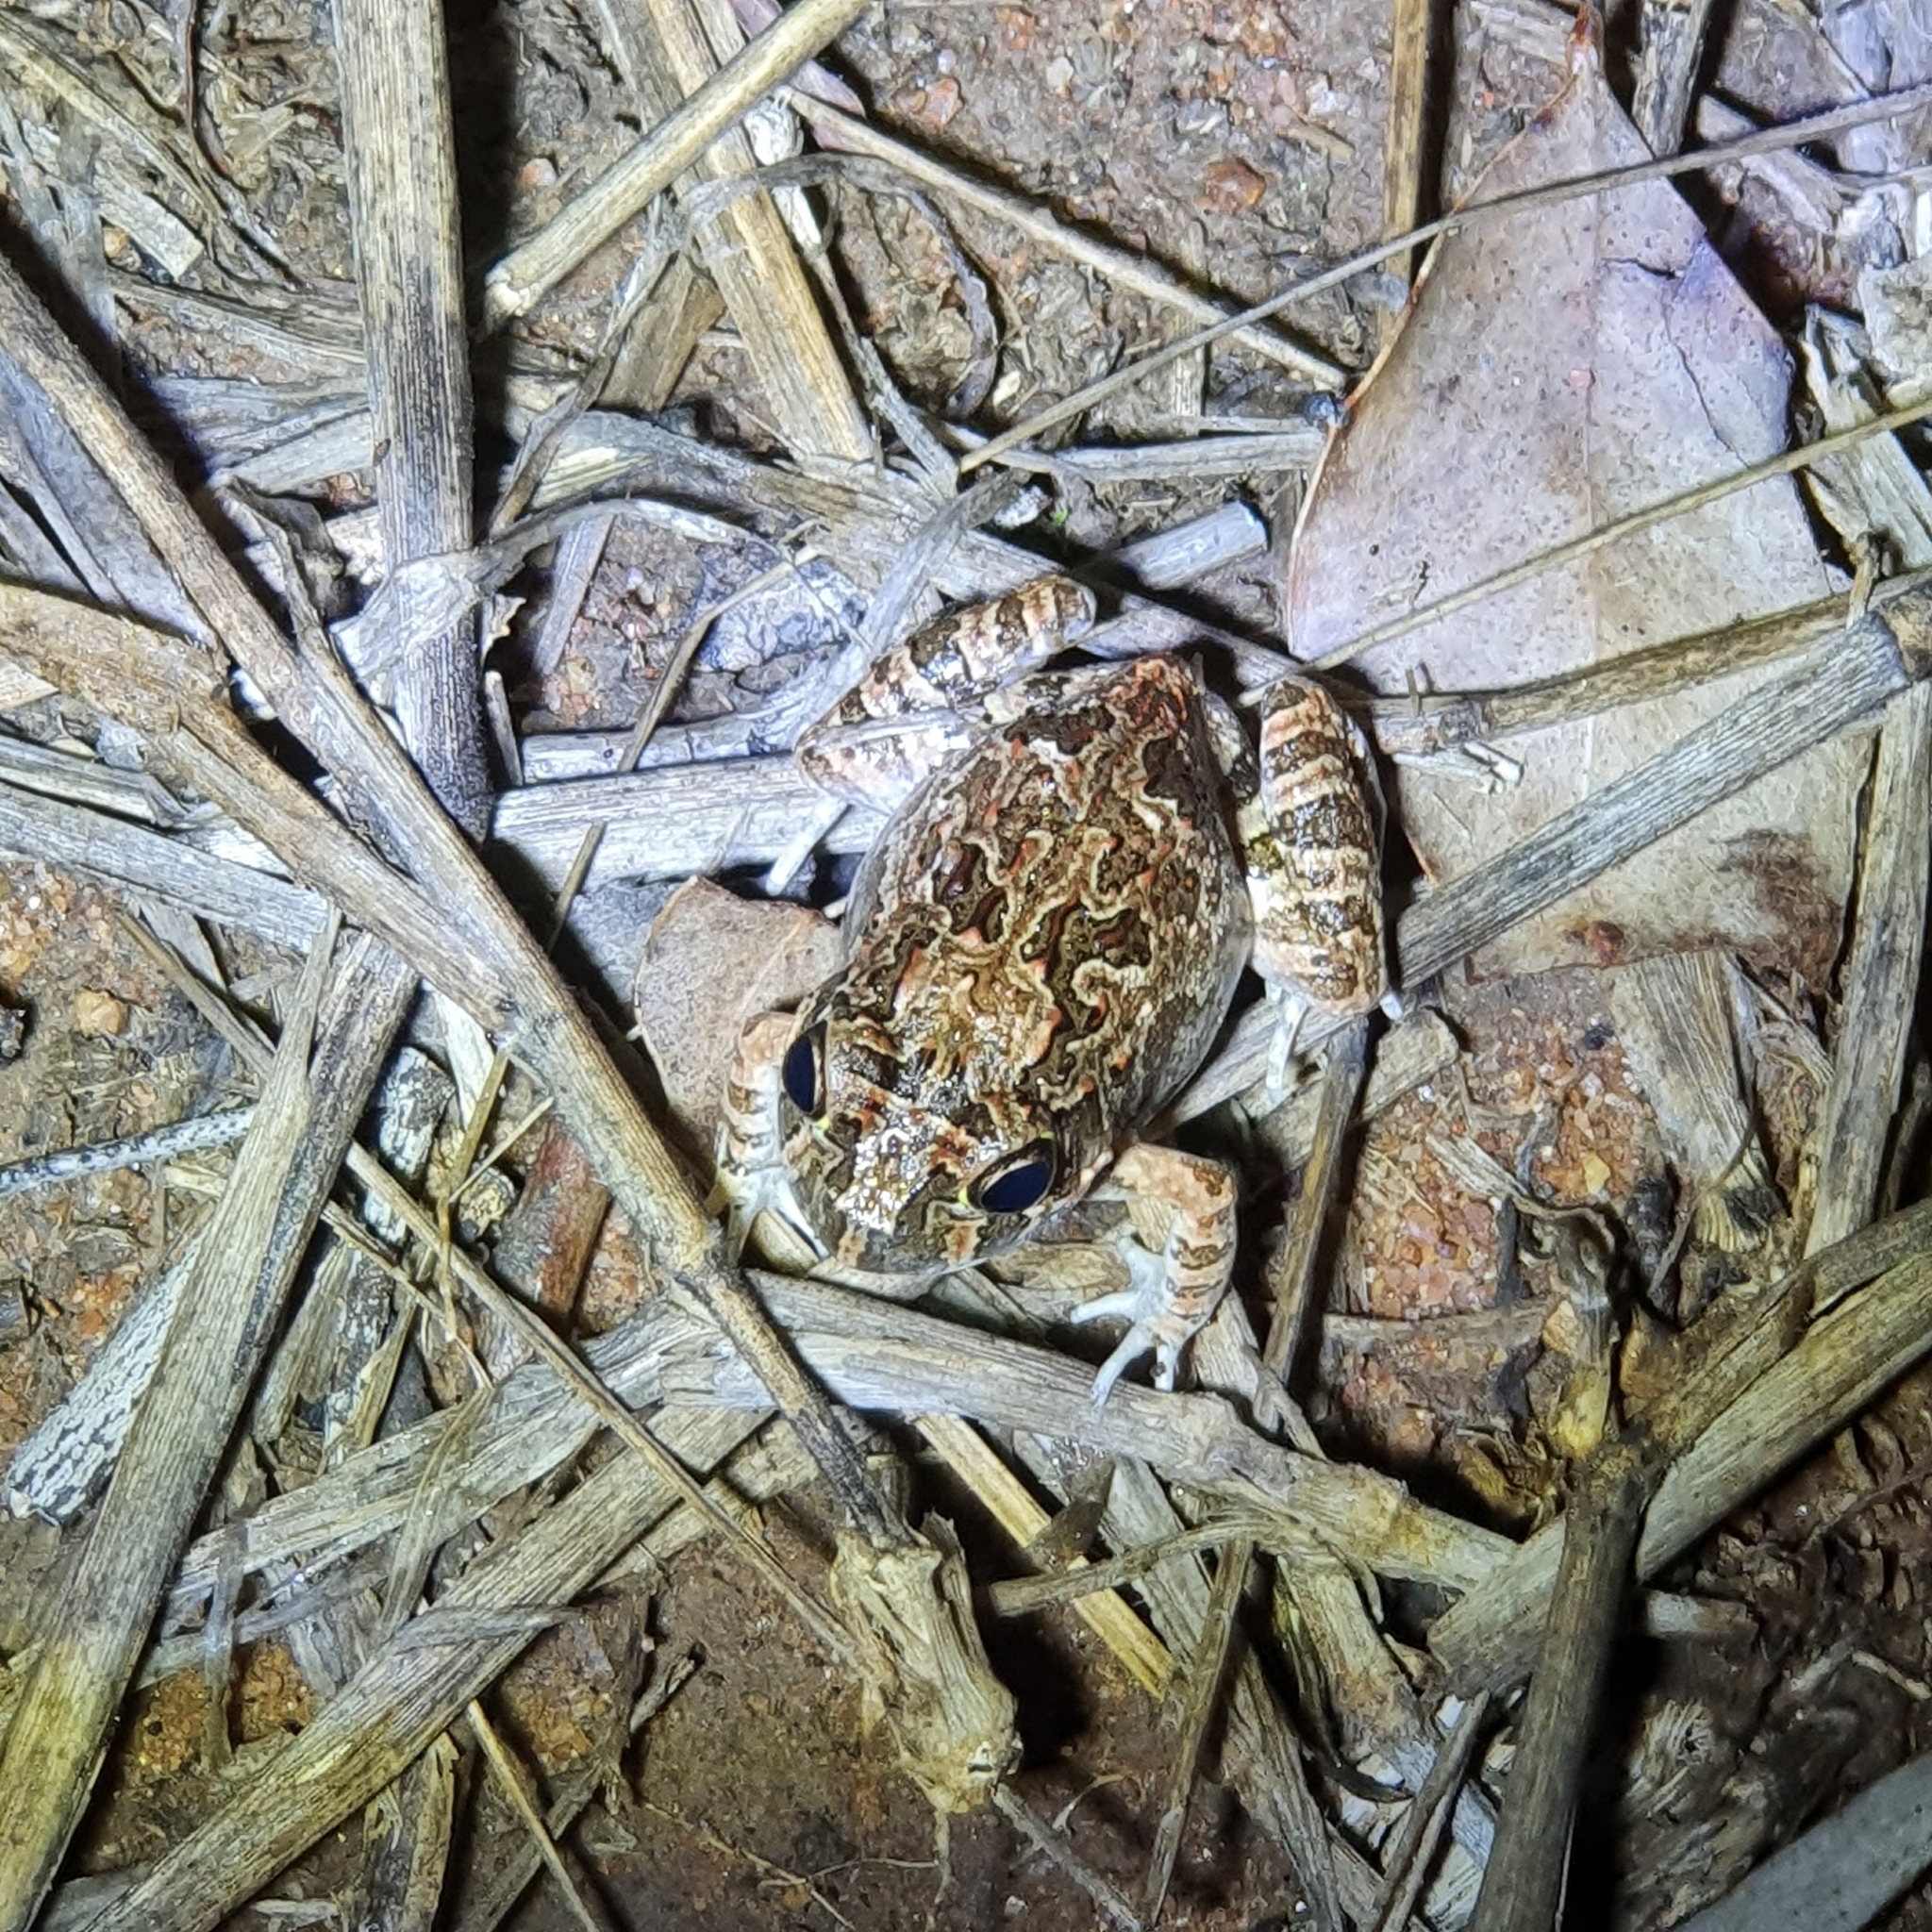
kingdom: Animalia
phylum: Chordata
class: Amphibia
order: Anura
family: Limnodynastidae
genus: Platyplectrum
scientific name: Platyplectrum ornatum
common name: Ornate burrowing frog
